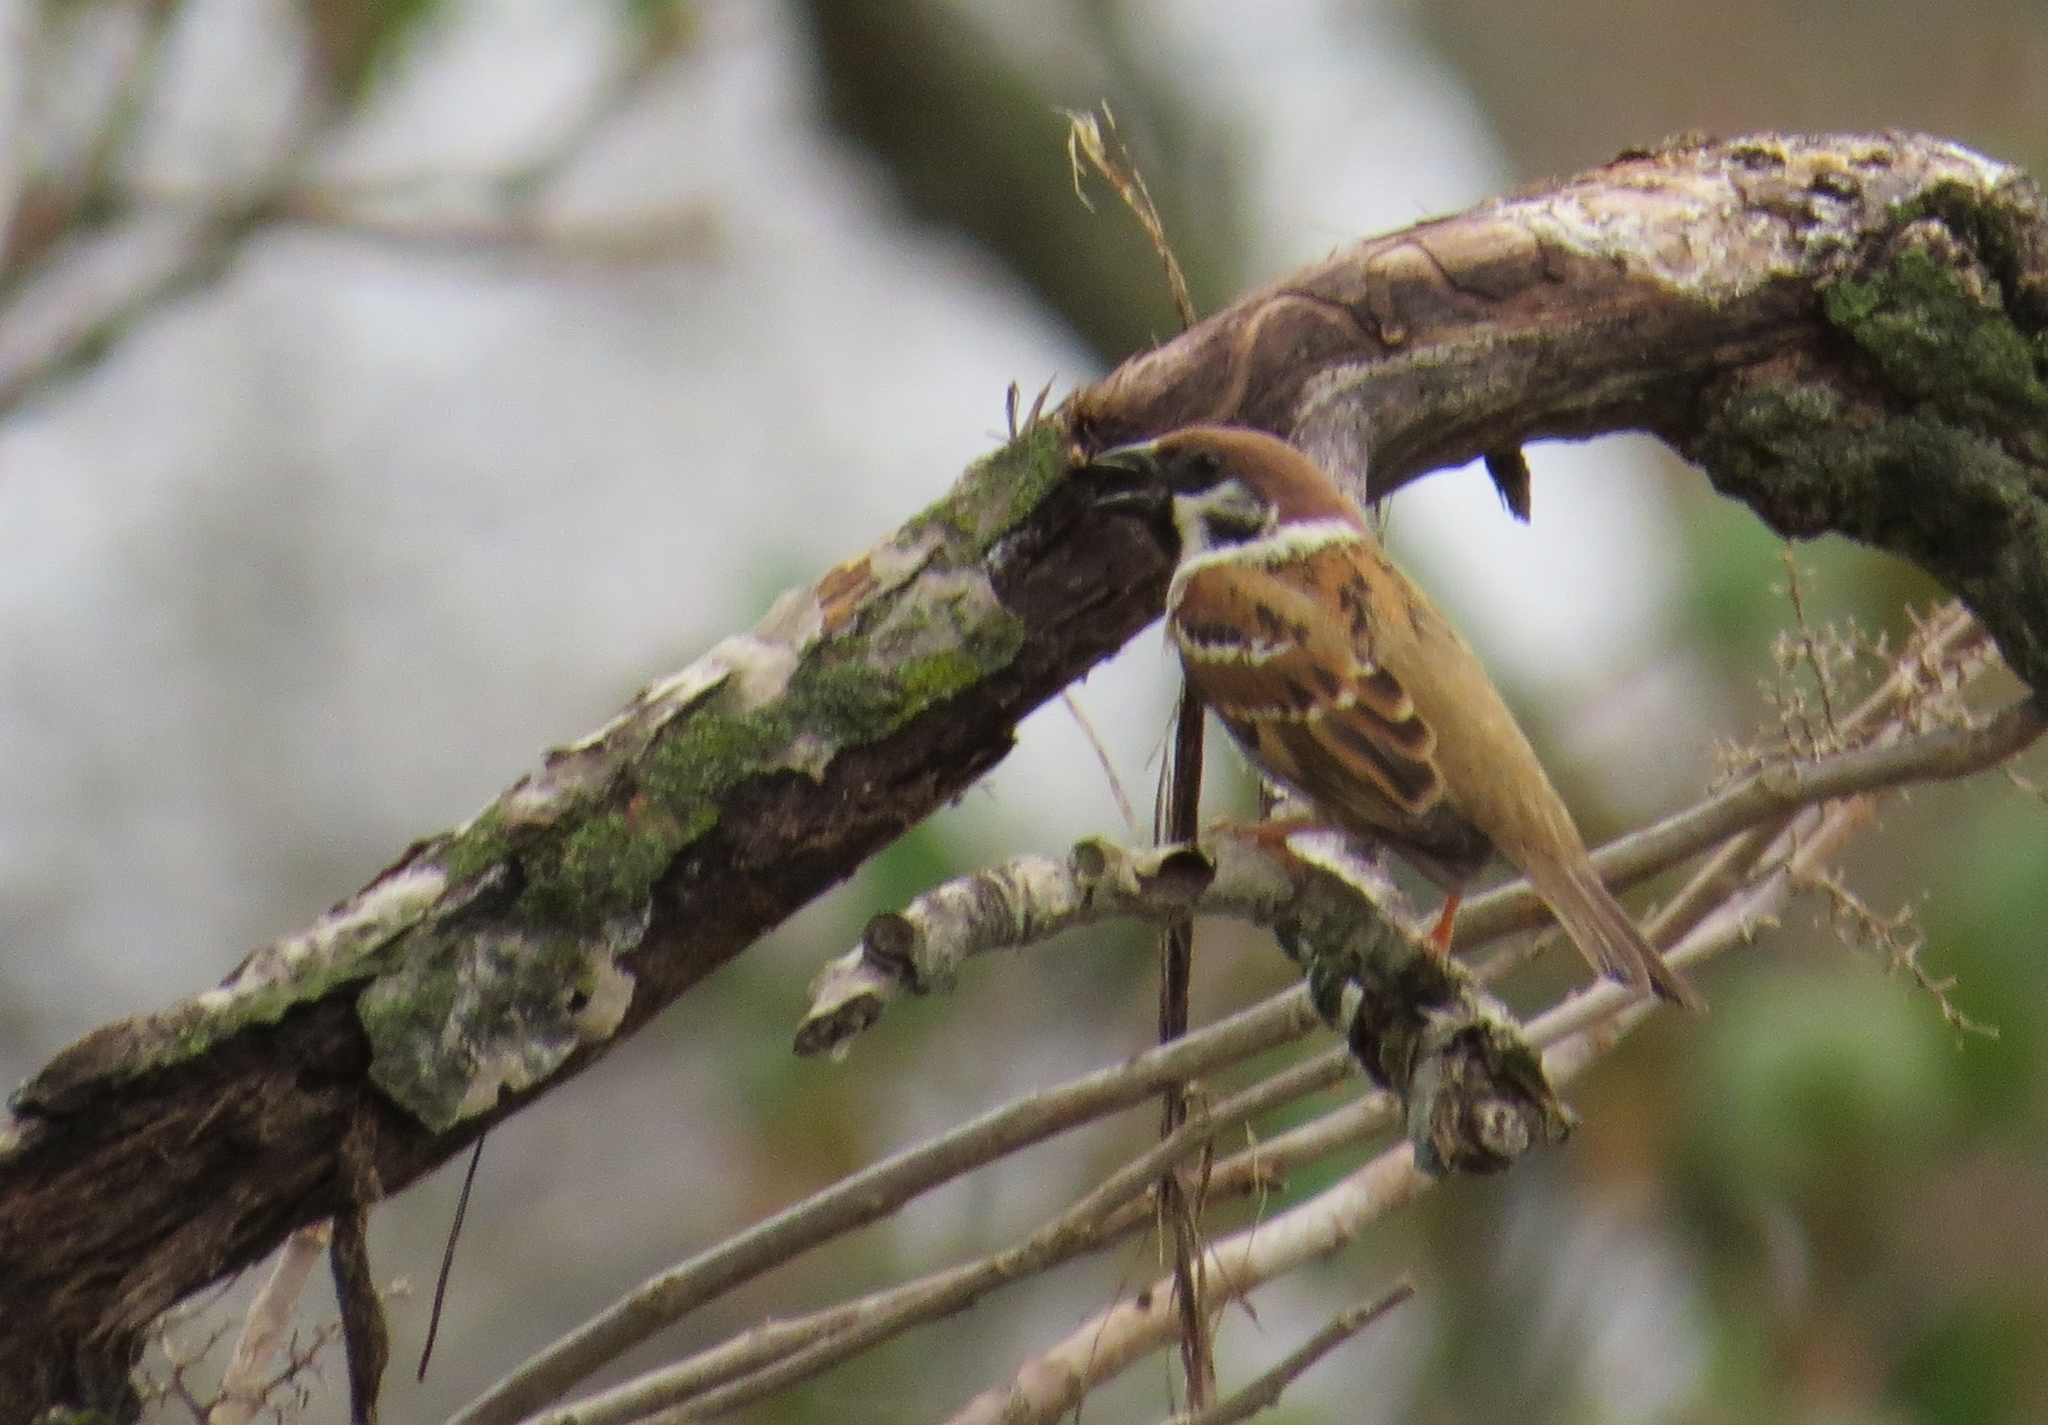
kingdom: Animalia
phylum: Chordata
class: Aves
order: Passeriformes
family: Passeridae
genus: Passer
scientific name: Passer montanus
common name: Eurasian tree sparrow
